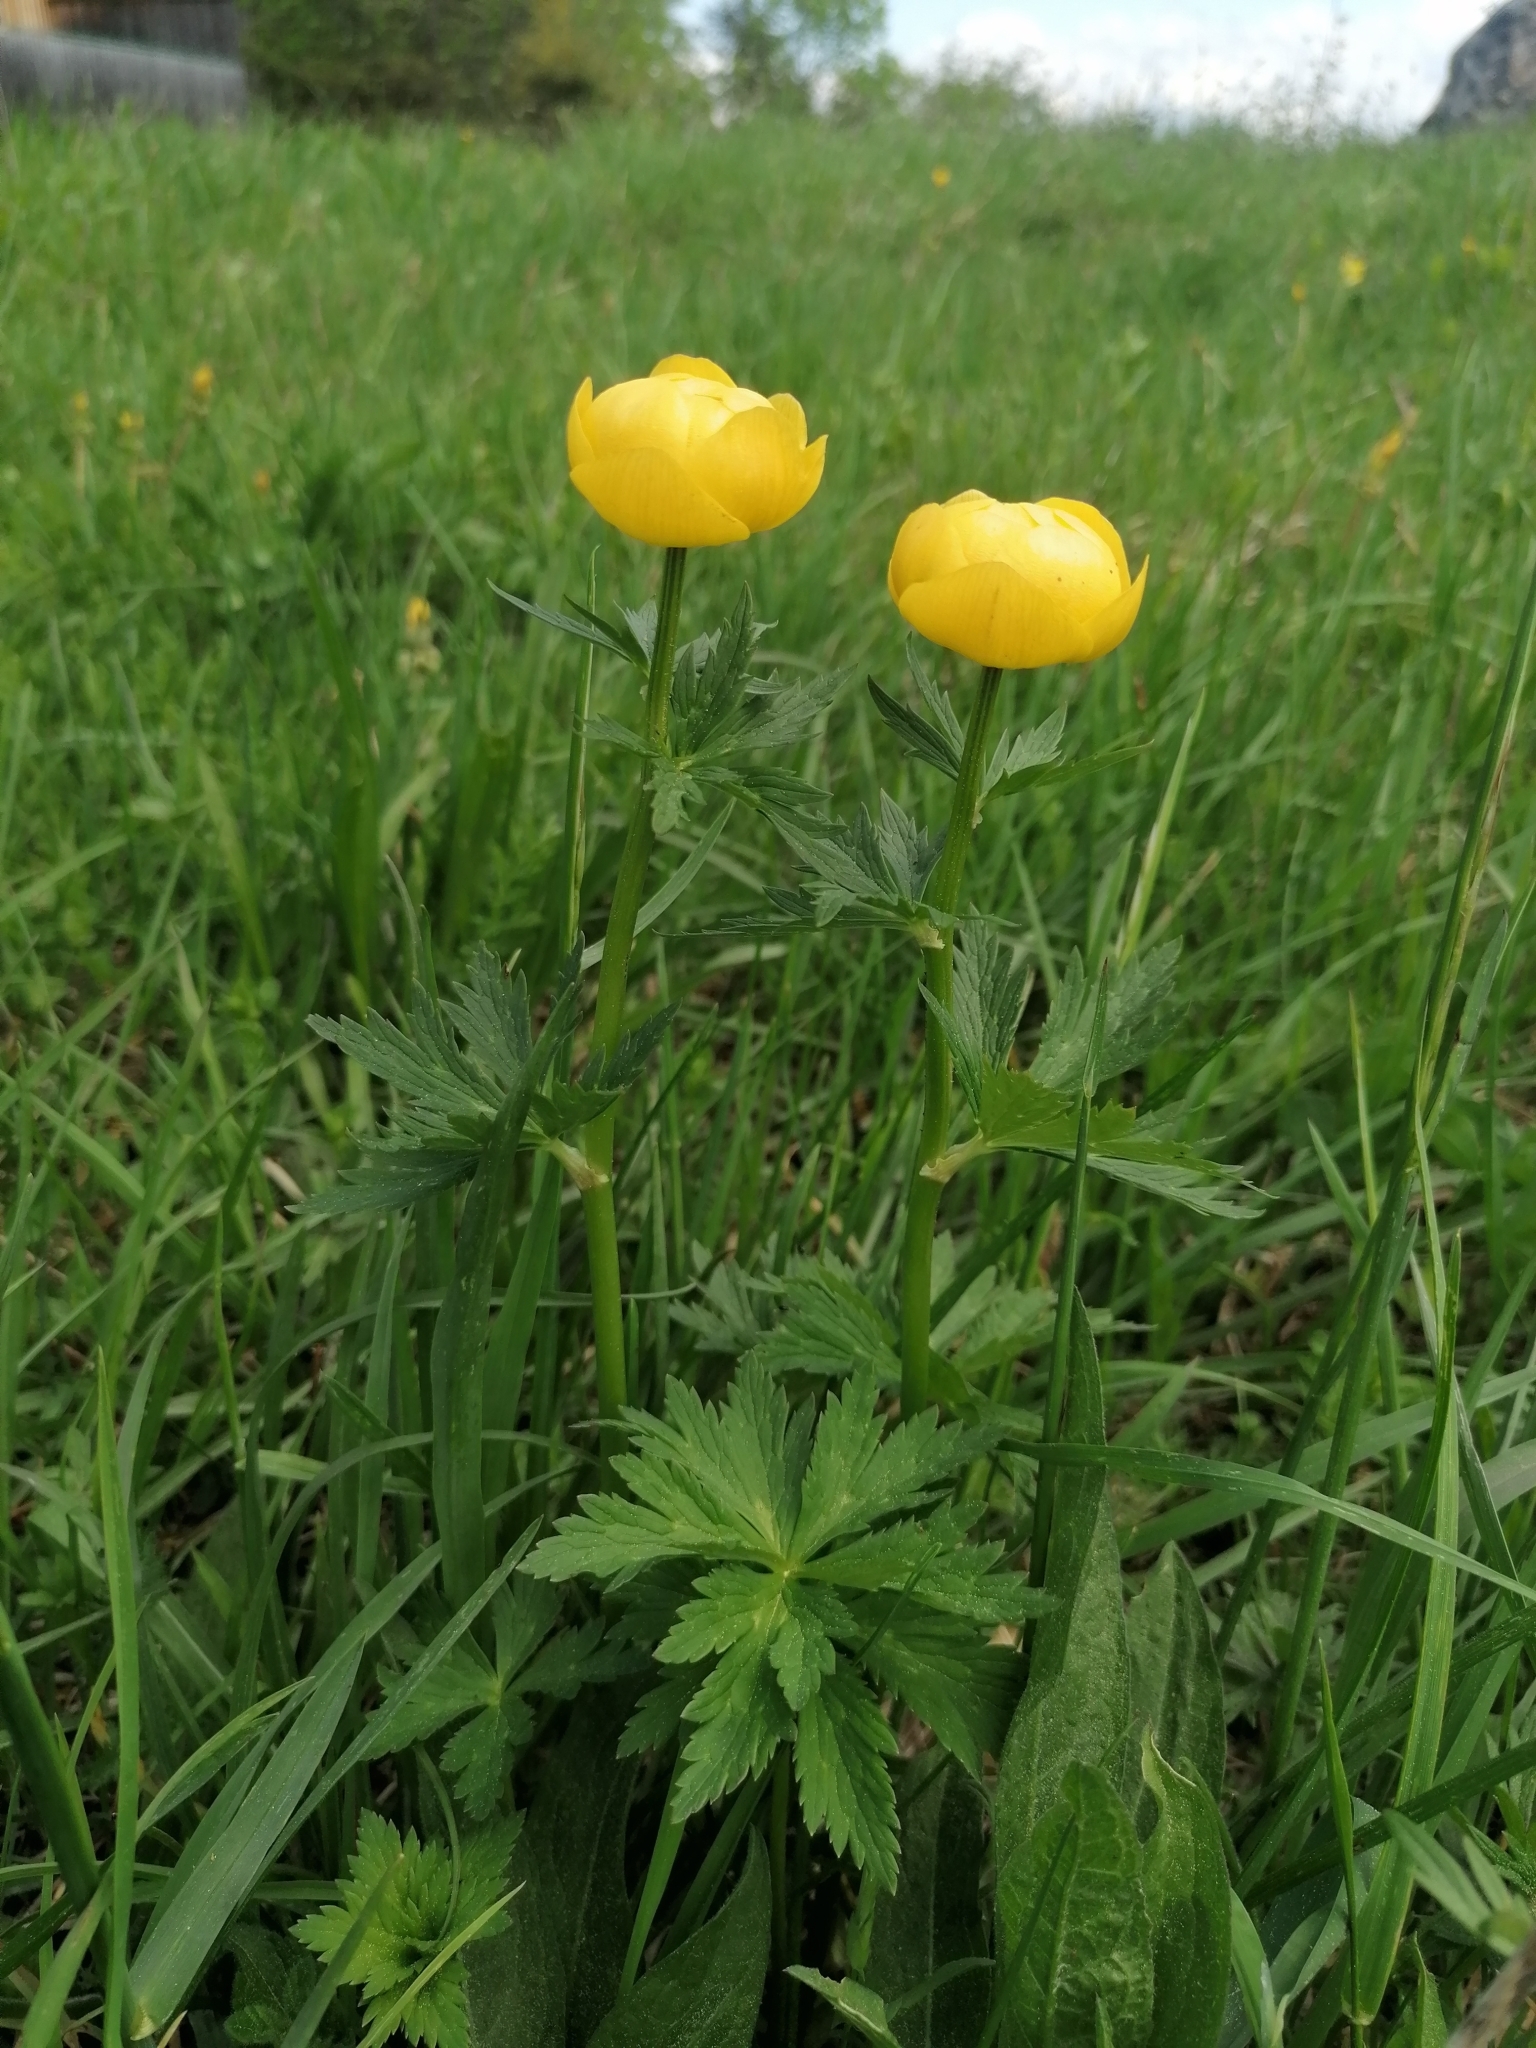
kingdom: Plantae
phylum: Tracheophyta
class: Magnoliopsida
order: Ranunculales
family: Ranunculaceae
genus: Trollius
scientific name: Trollius europaeus
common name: European globeflower
